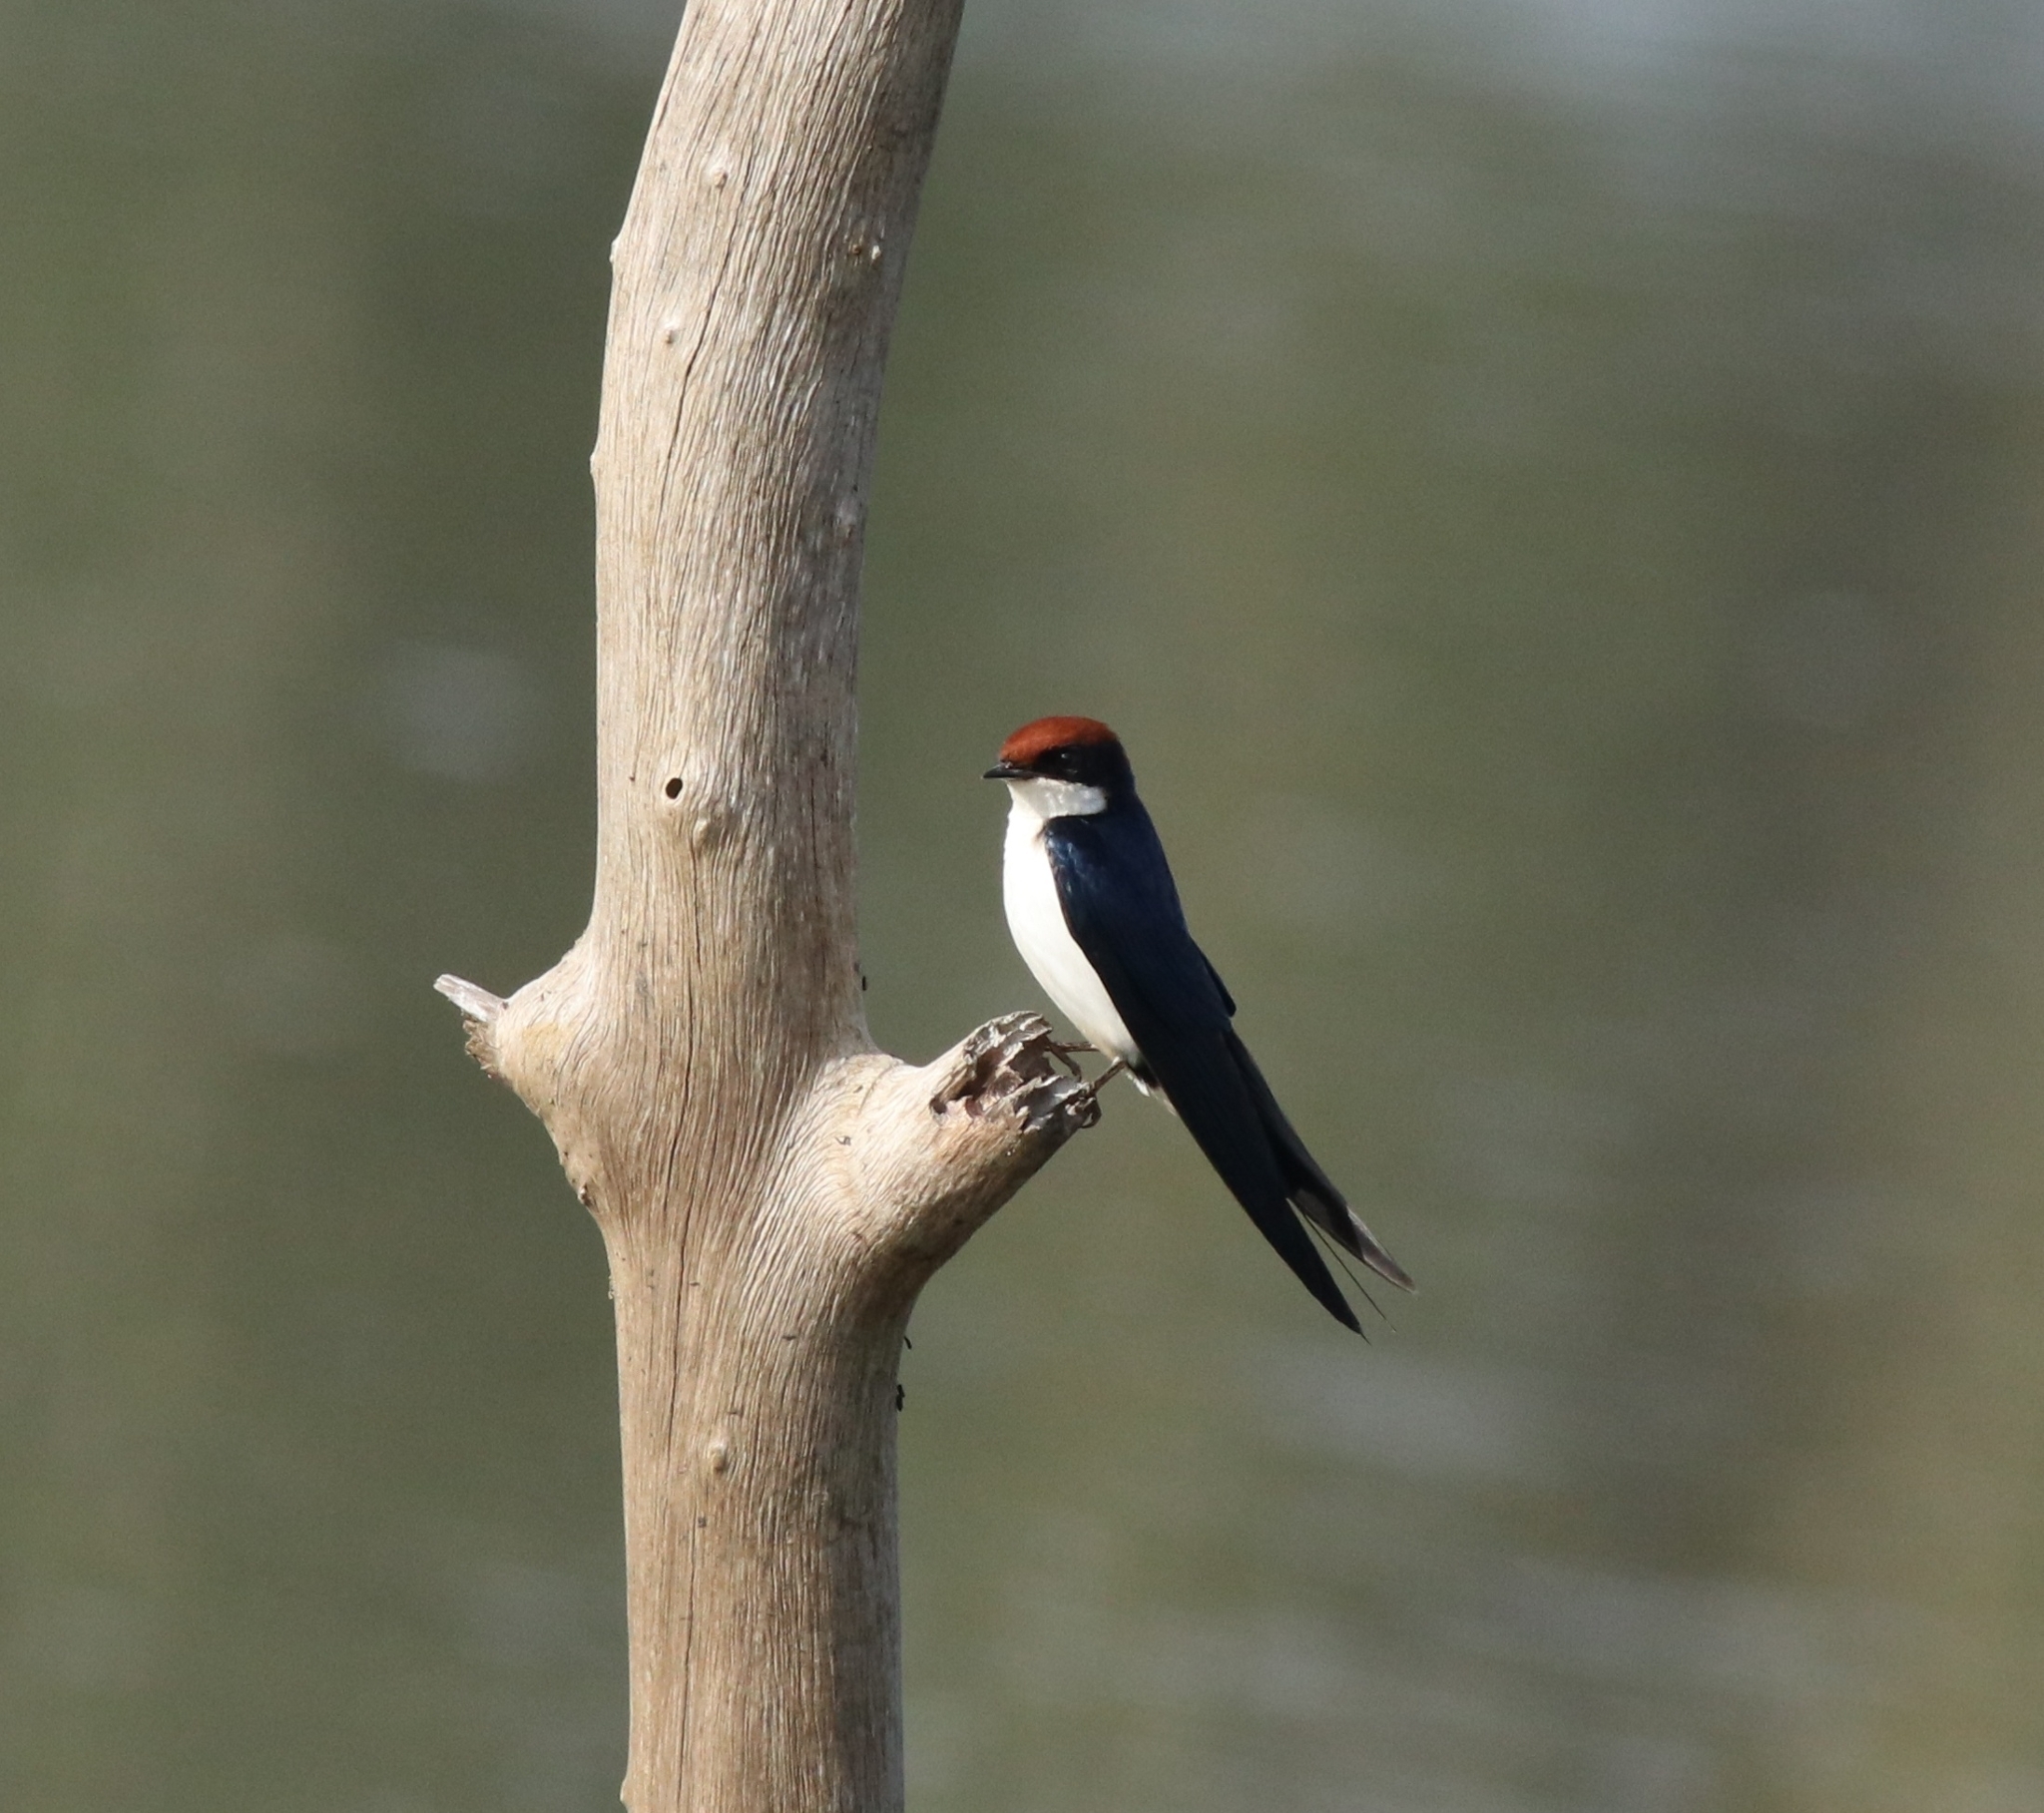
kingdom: Animalia
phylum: Chordata
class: Aves
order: Passeriformes
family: Hirundinidae
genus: Hirundo
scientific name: Hirundo smithii
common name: Wire-tailed swallow
